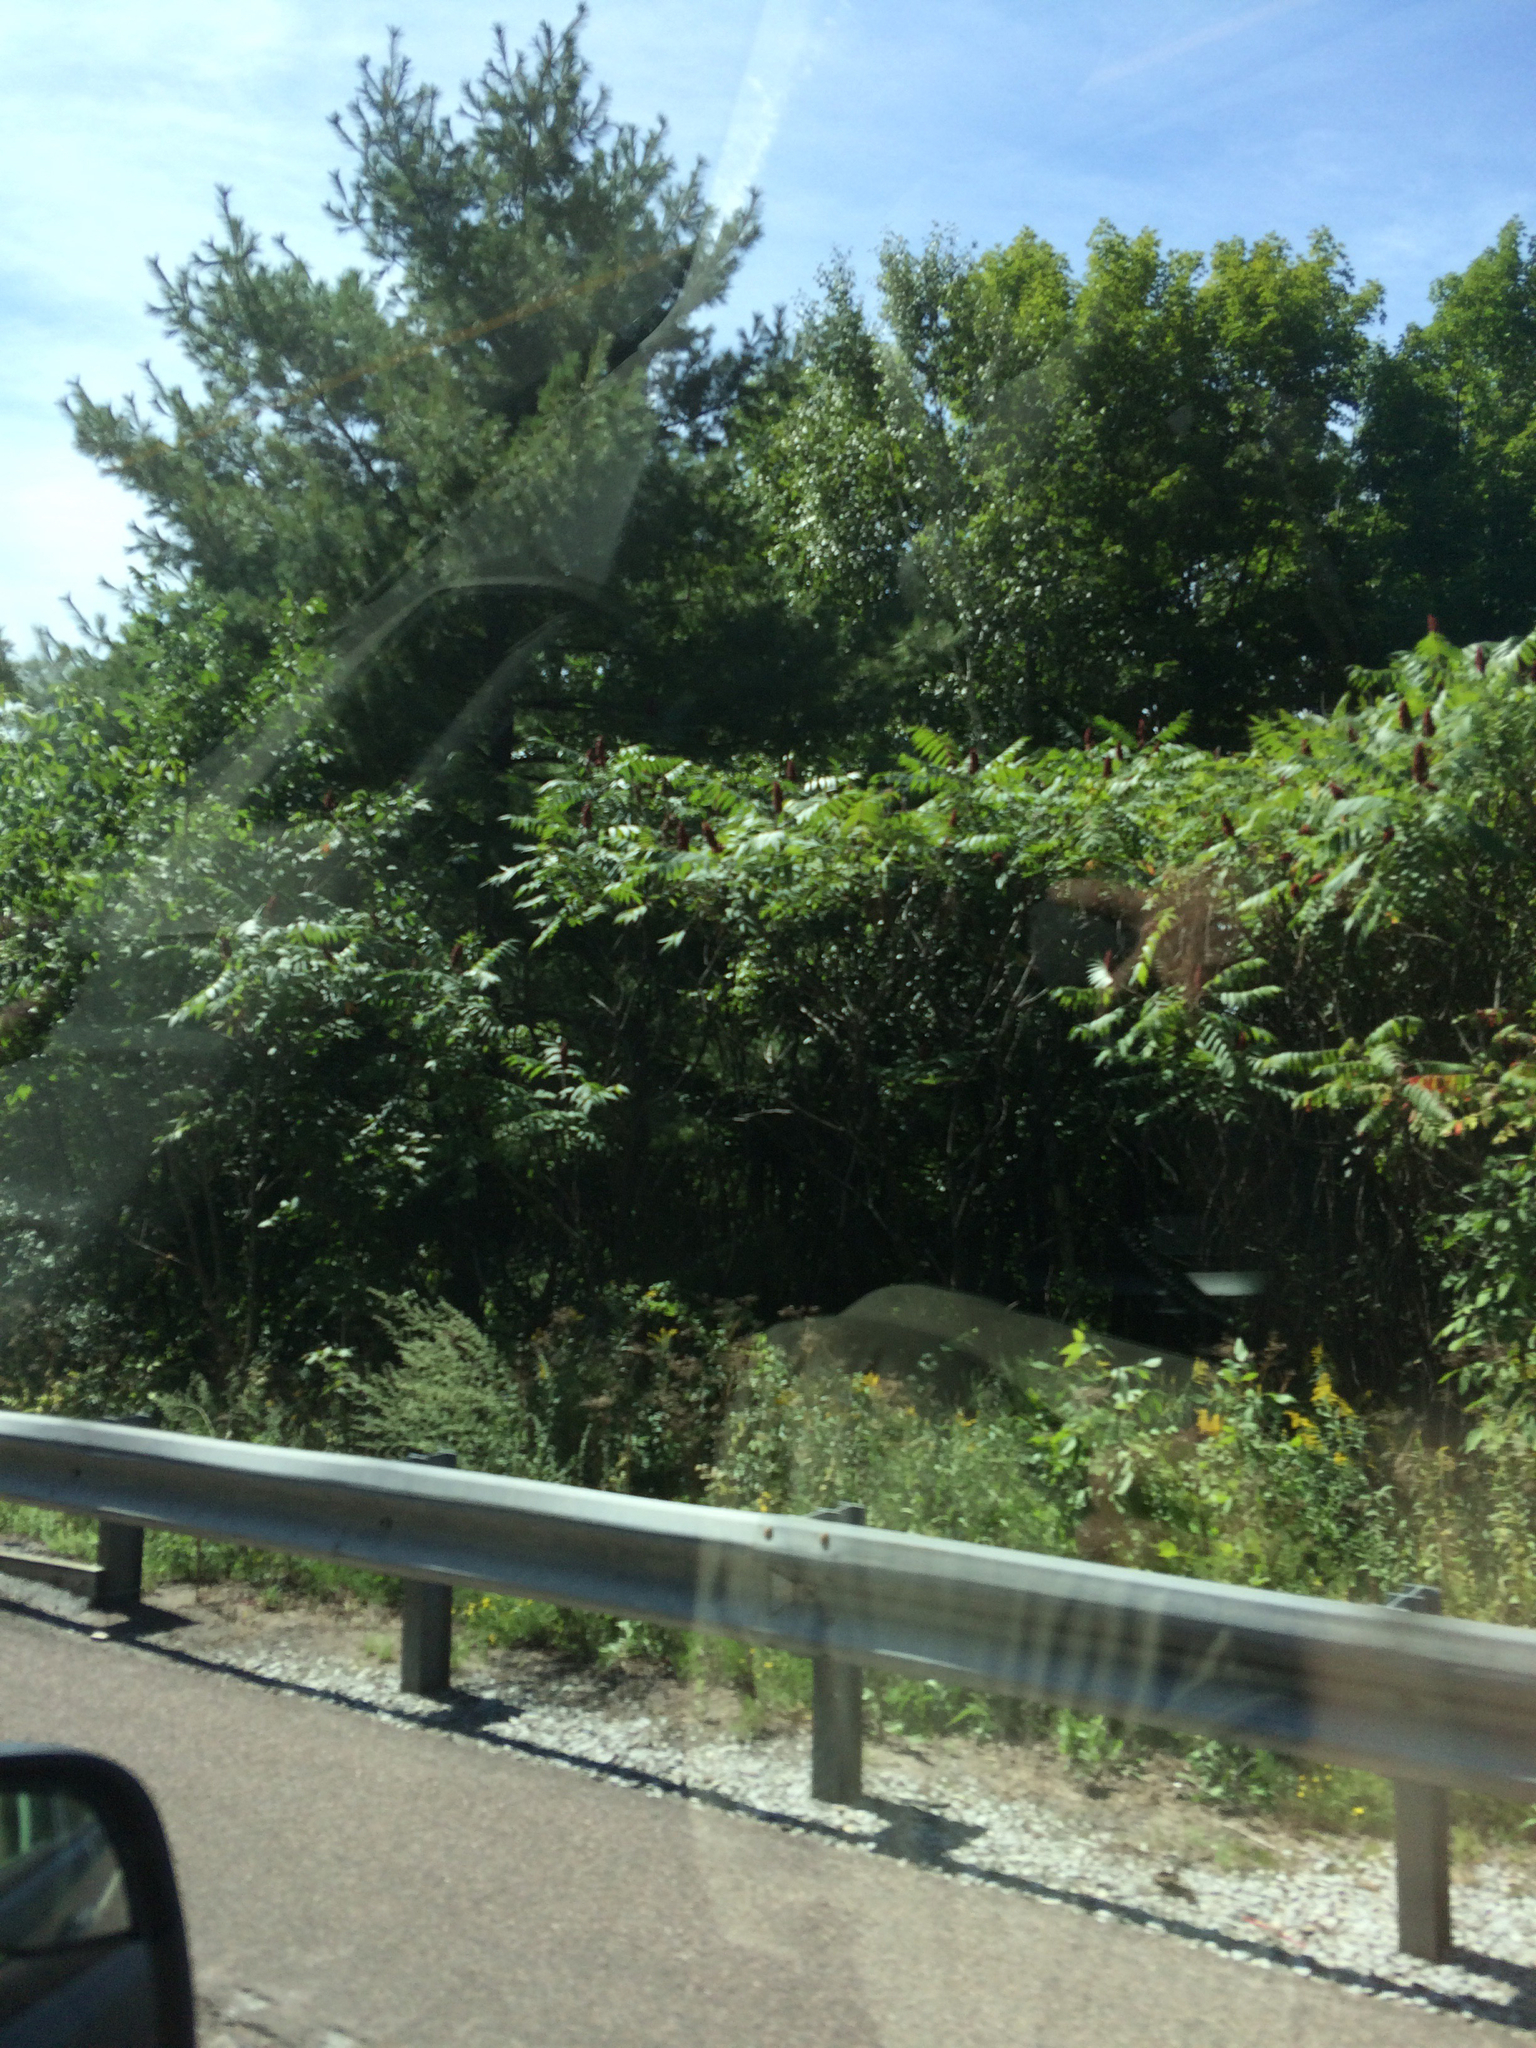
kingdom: Plantae
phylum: Tracheophyta
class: Pinopsida
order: Pinales
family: Pinaceae
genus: Pinus
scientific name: Pinus strobus
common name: Weymouth pine
